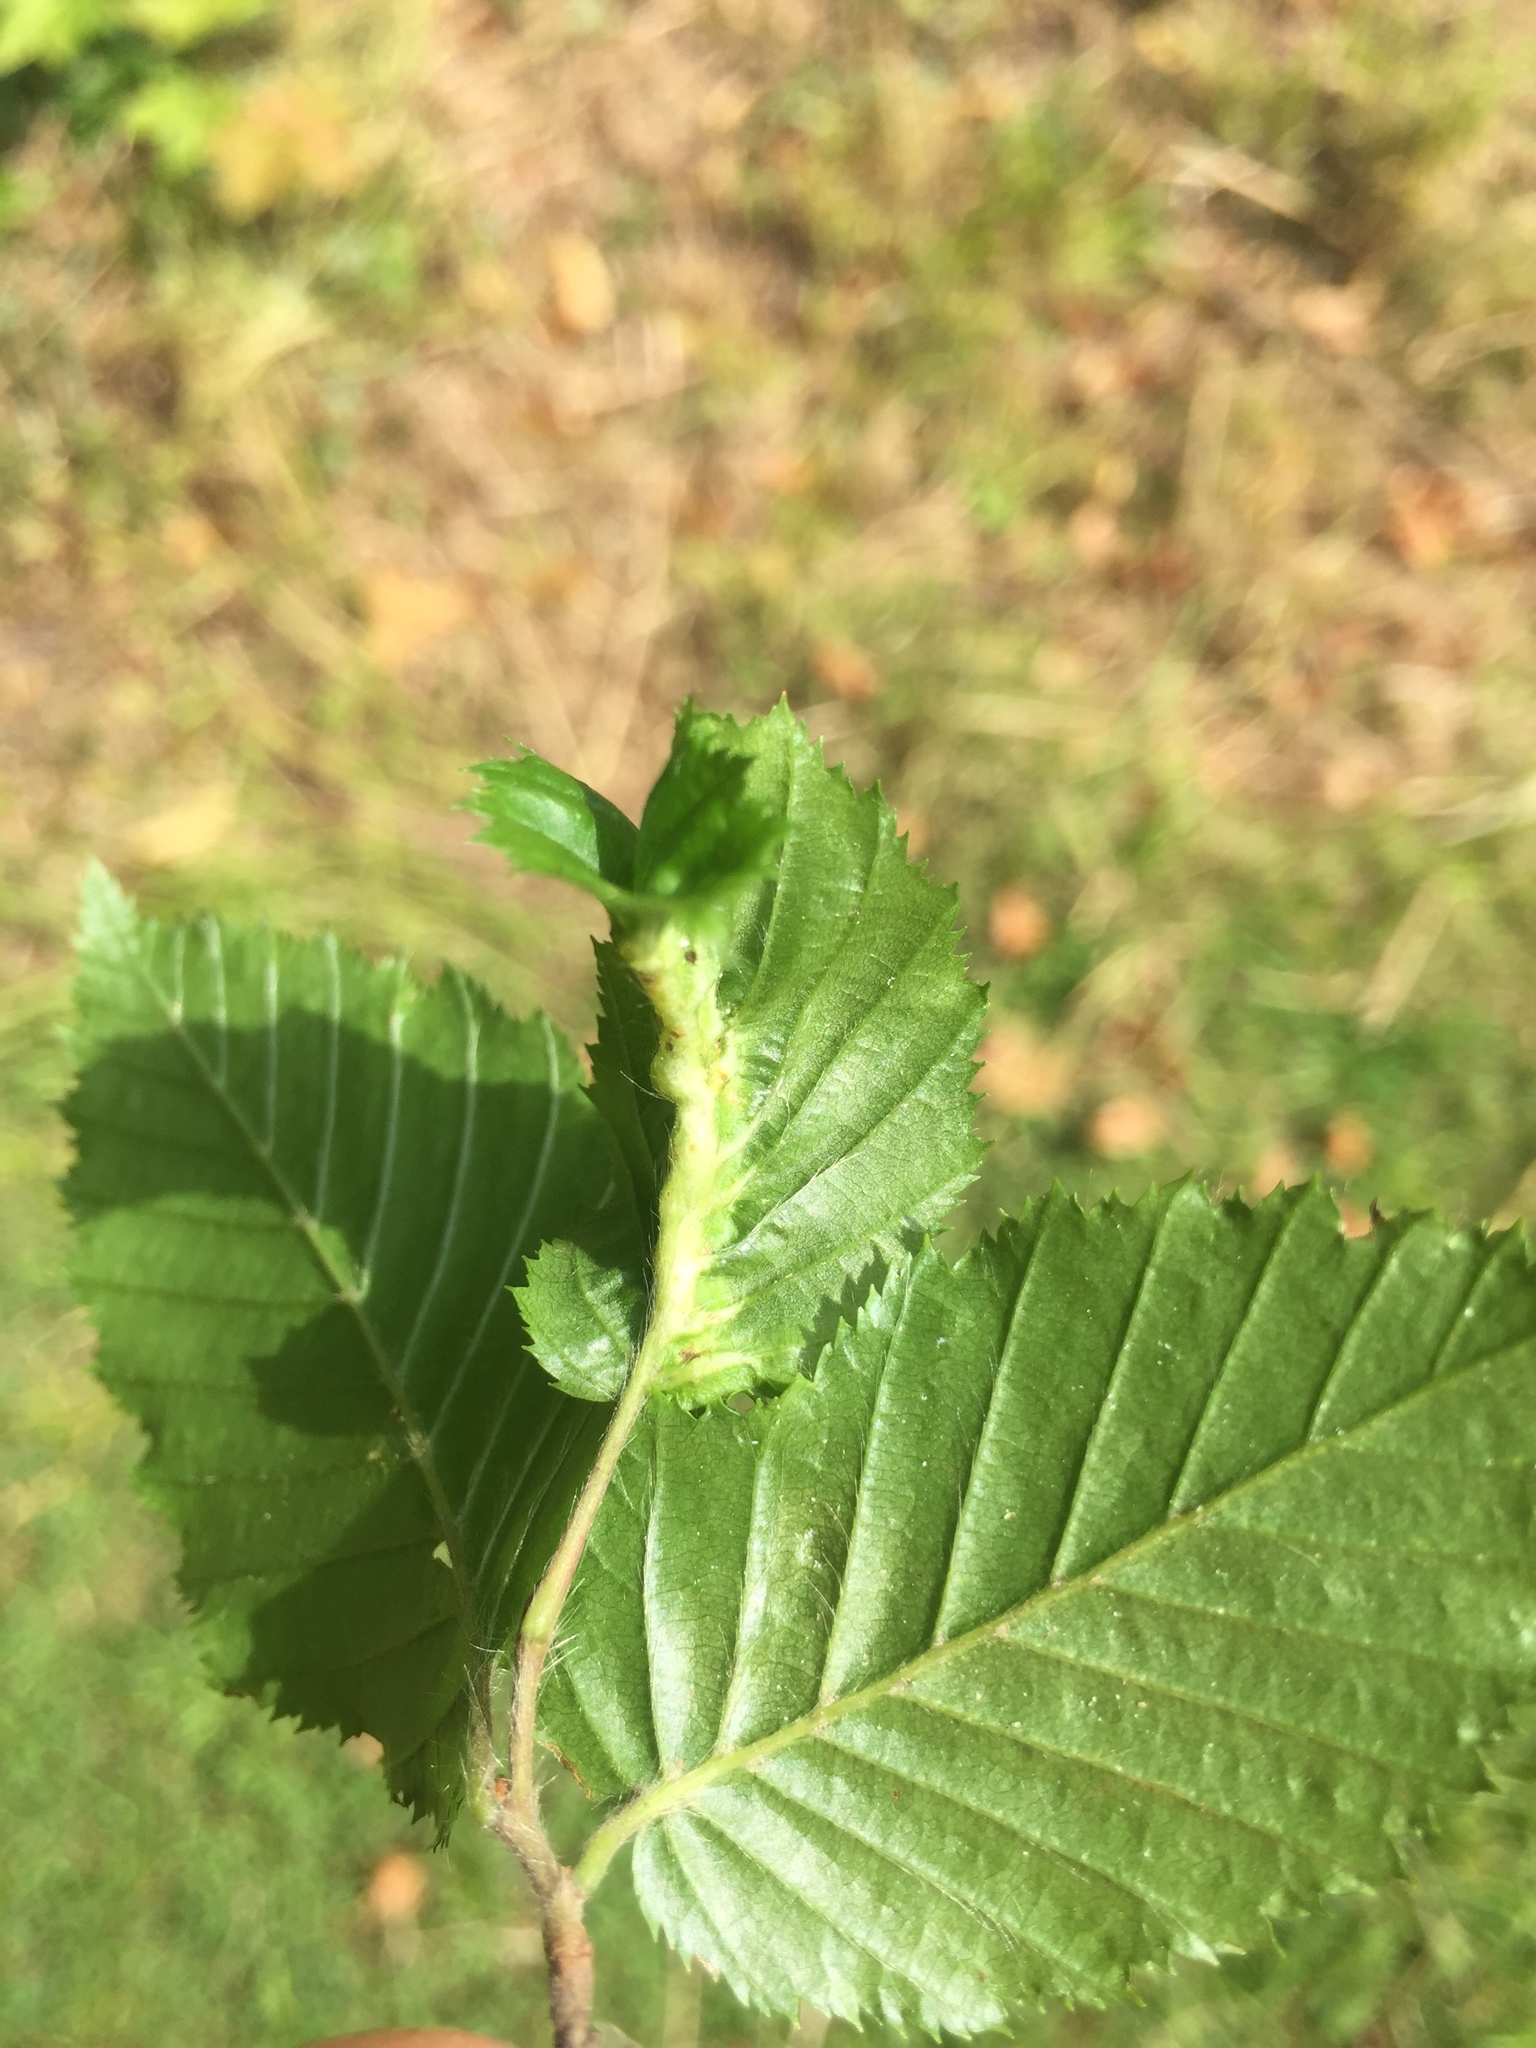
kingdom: Animalia
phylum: Arthropoda
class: Insecta
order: Diptera
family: Cecidomyiidae
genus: Zygiobia
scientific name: Zygiobia carpini
